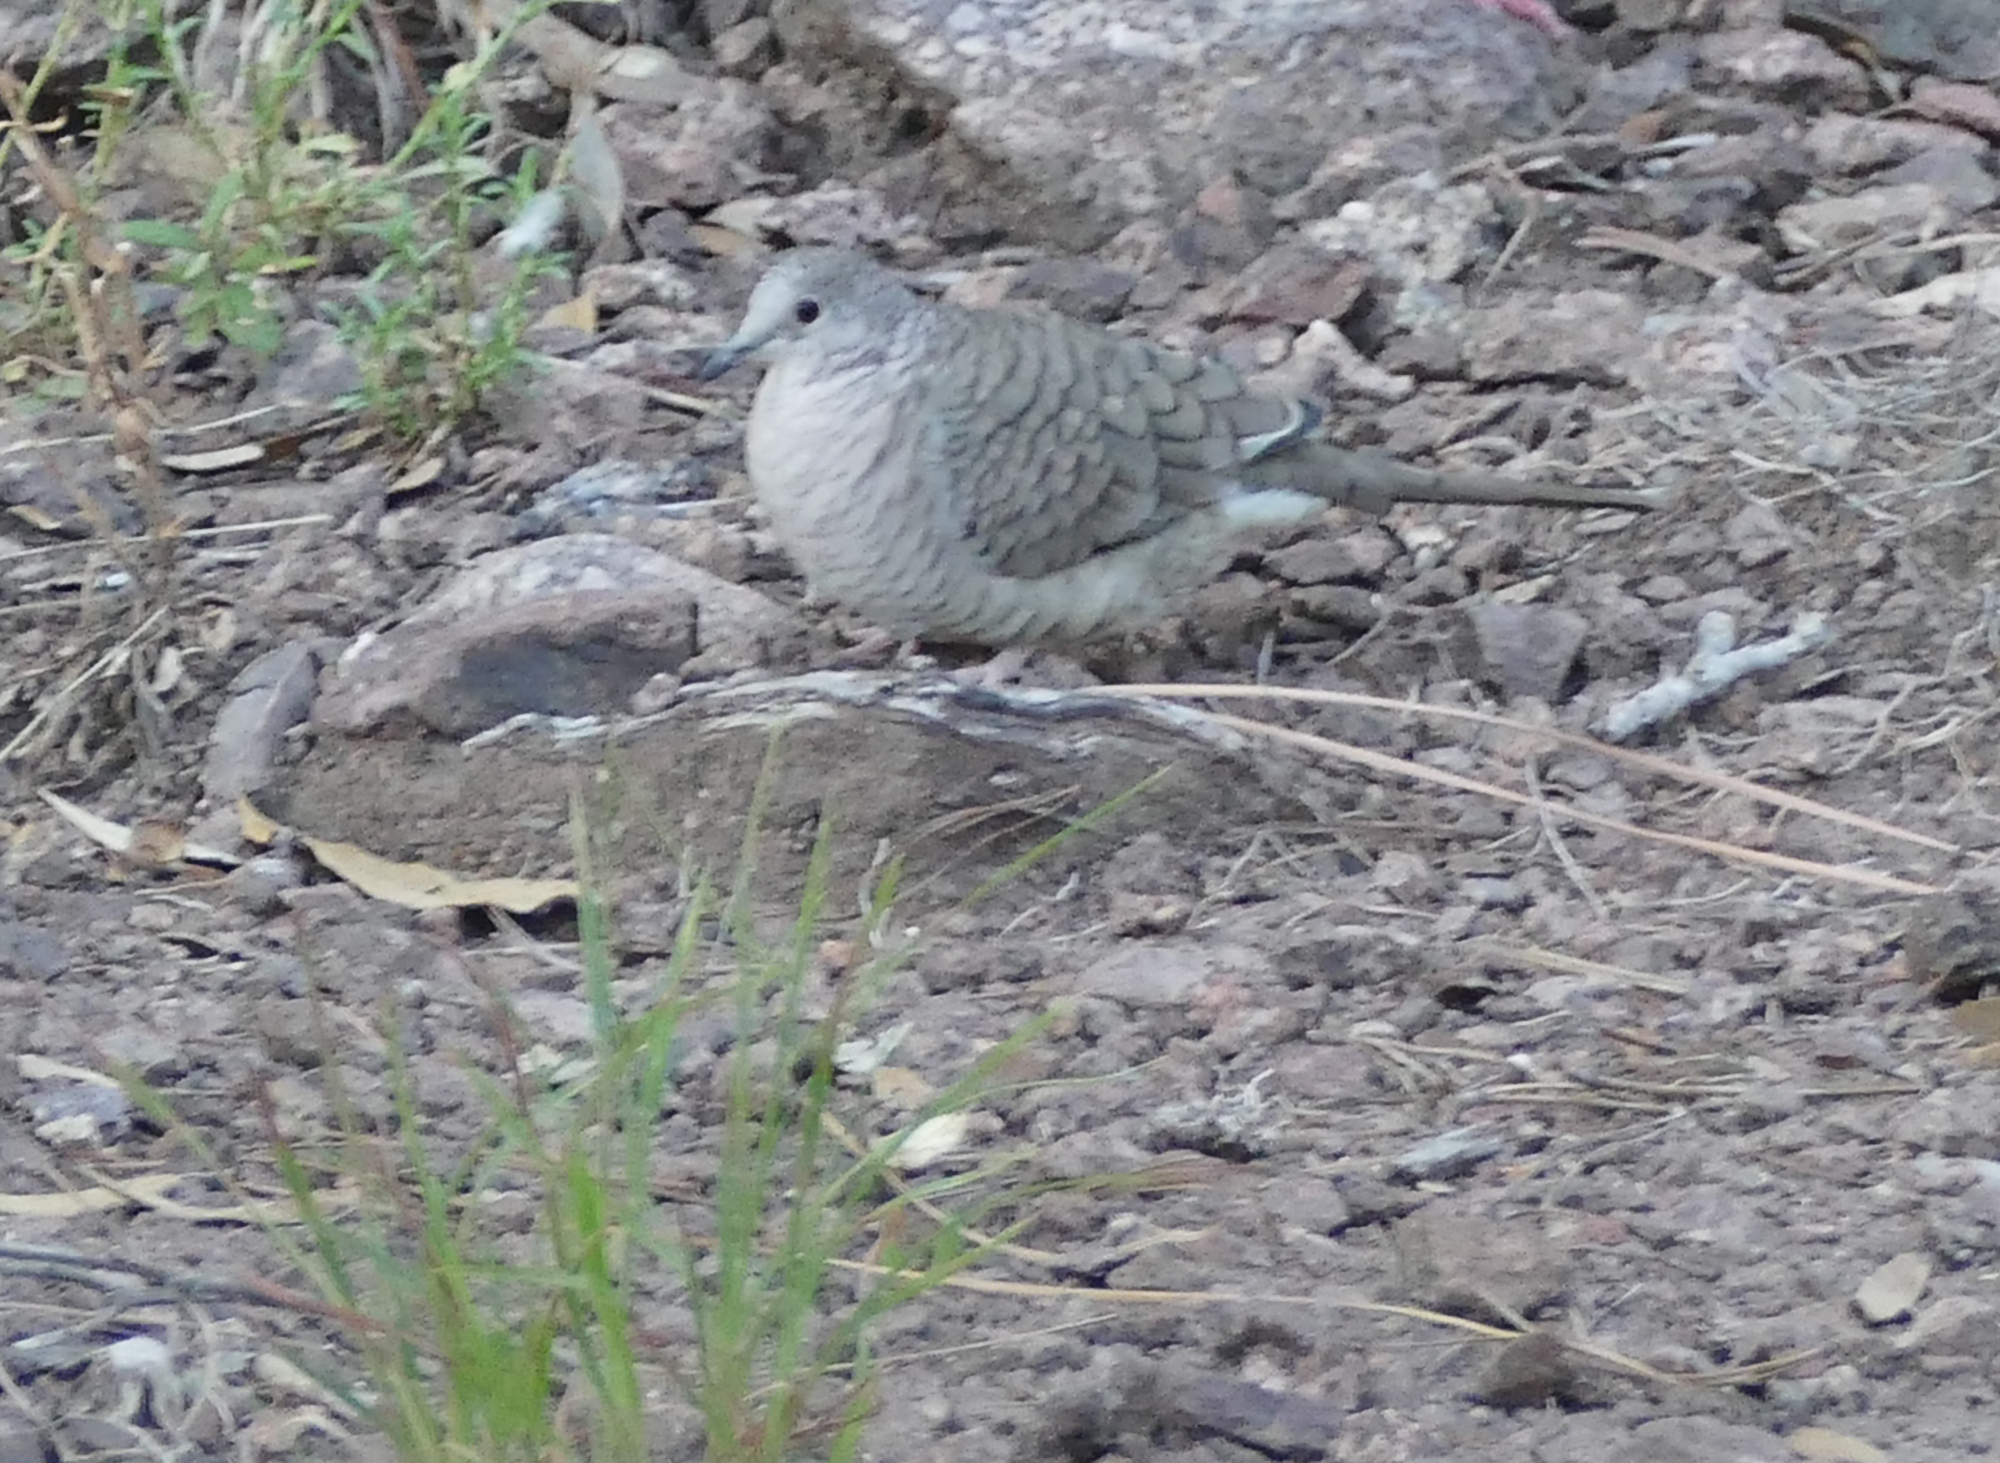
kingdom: Animalia
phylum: Chordata
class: Aves
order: Columbiformes
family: Columbidae
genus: Columbina
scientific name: Columbina inca
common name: Inca dove
